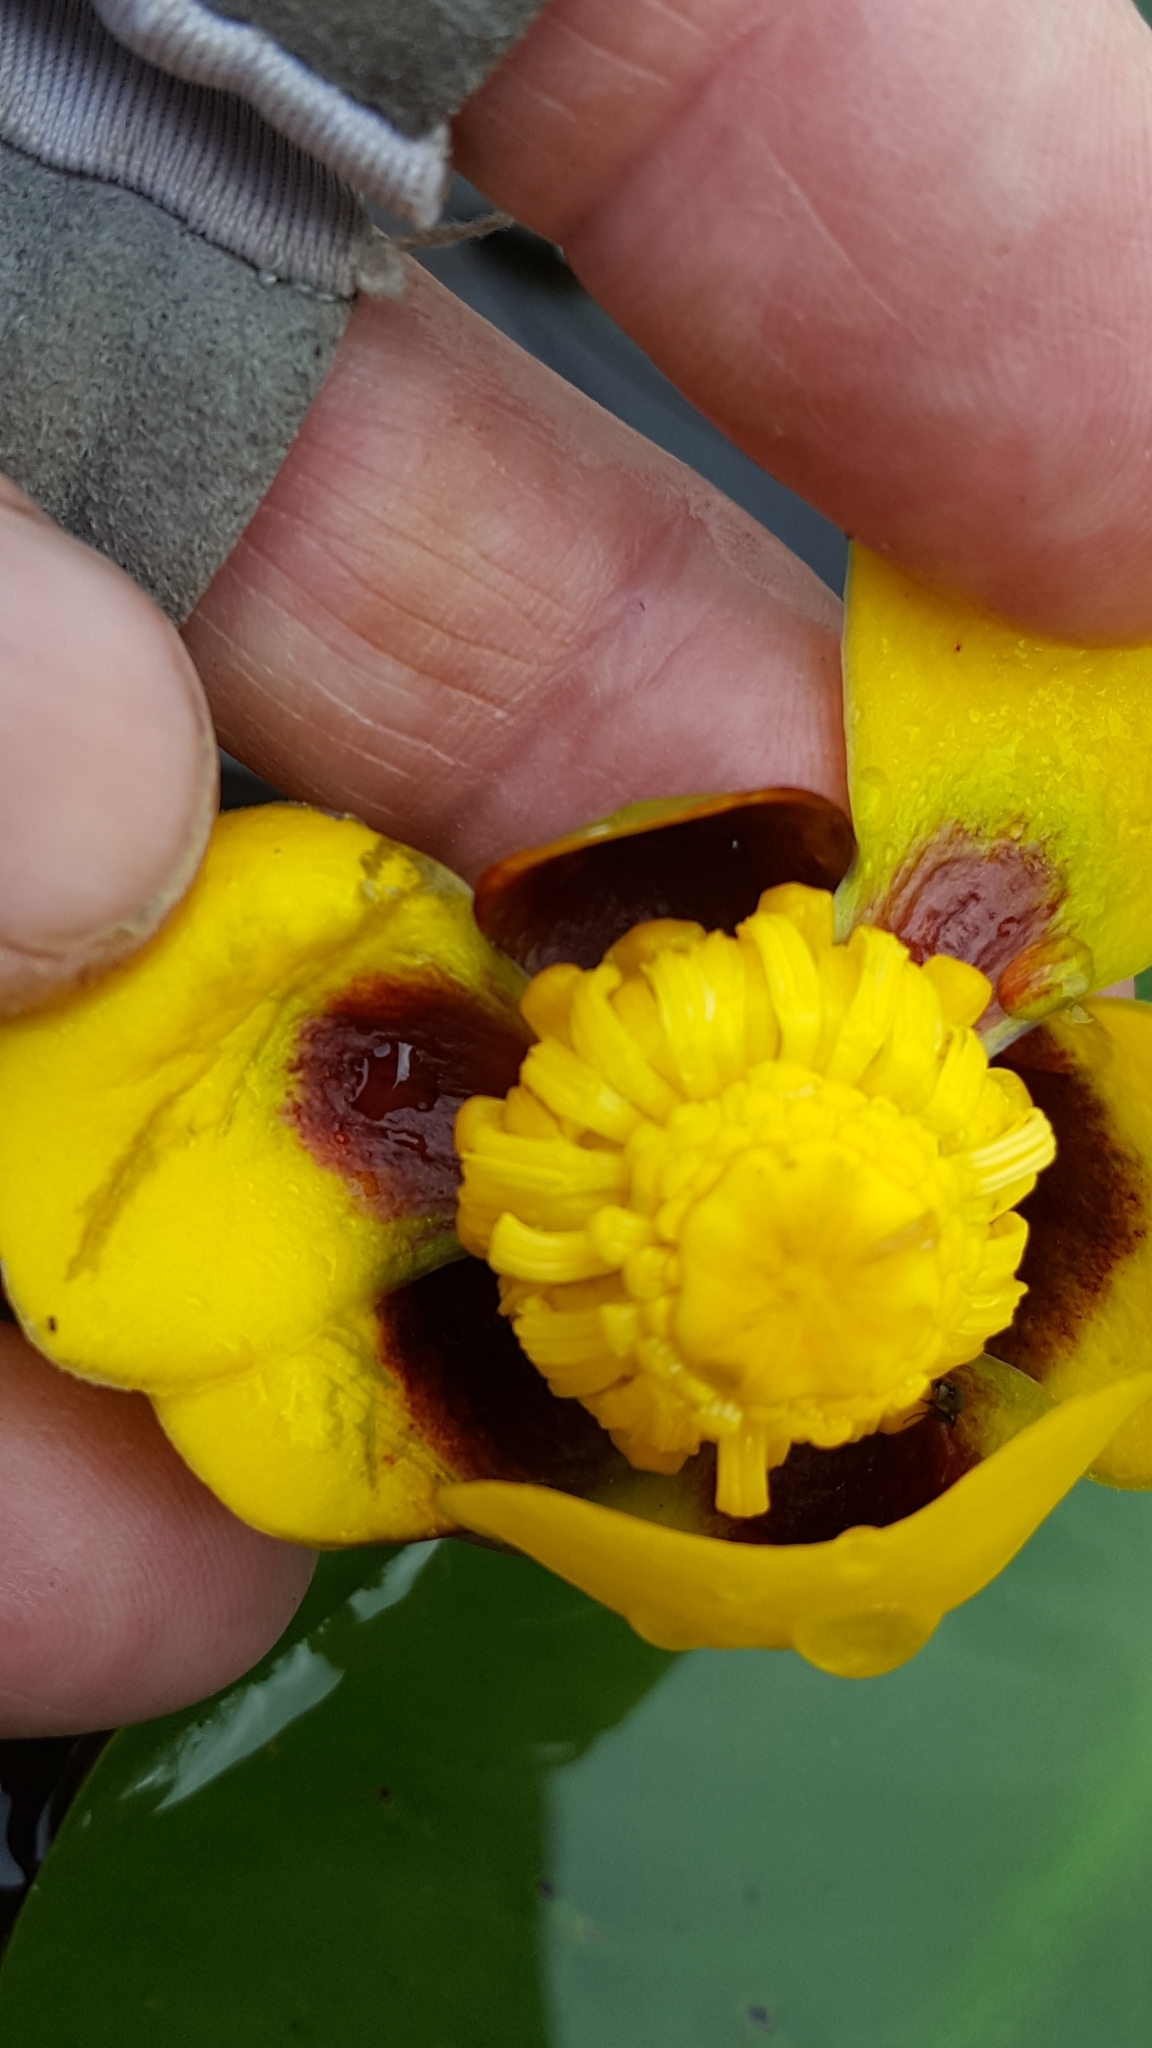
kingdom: Plantae
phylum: Tracheophyta
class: Magnoliopsida
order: Nymphaeales
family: Nymphaeaceae
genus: Nuphar
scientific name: Nuphar variegata
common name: Beaver-root
